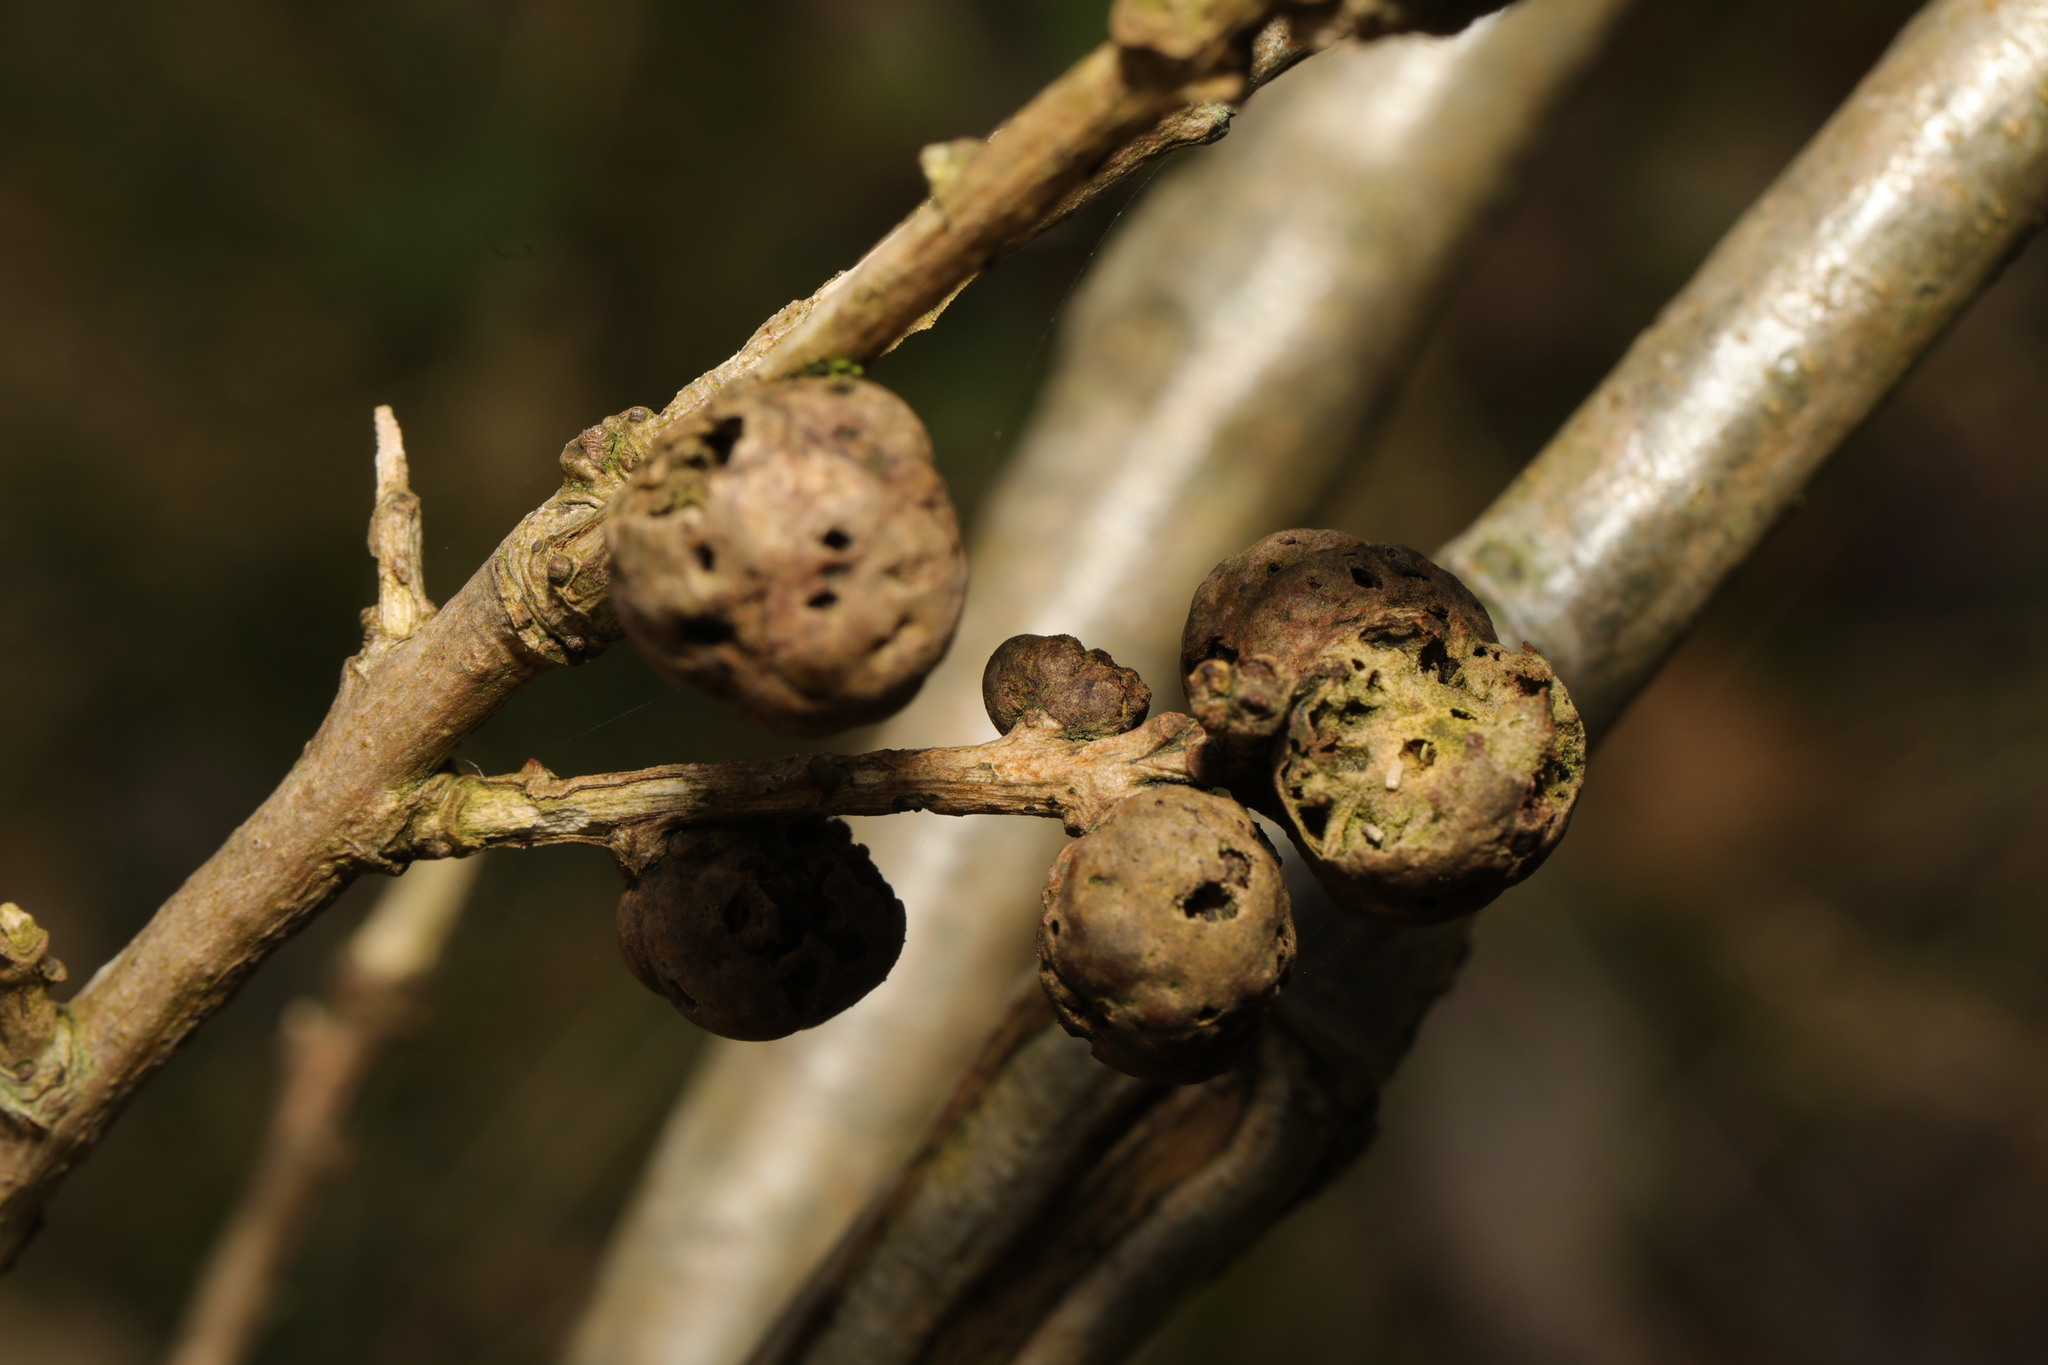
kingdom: Animalia
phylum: Arthropoda
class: Insecta
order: Hymenoptera
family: Cynipidae
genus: Andricus
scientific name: Andricus lignicolus
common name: Cola-nut gall
